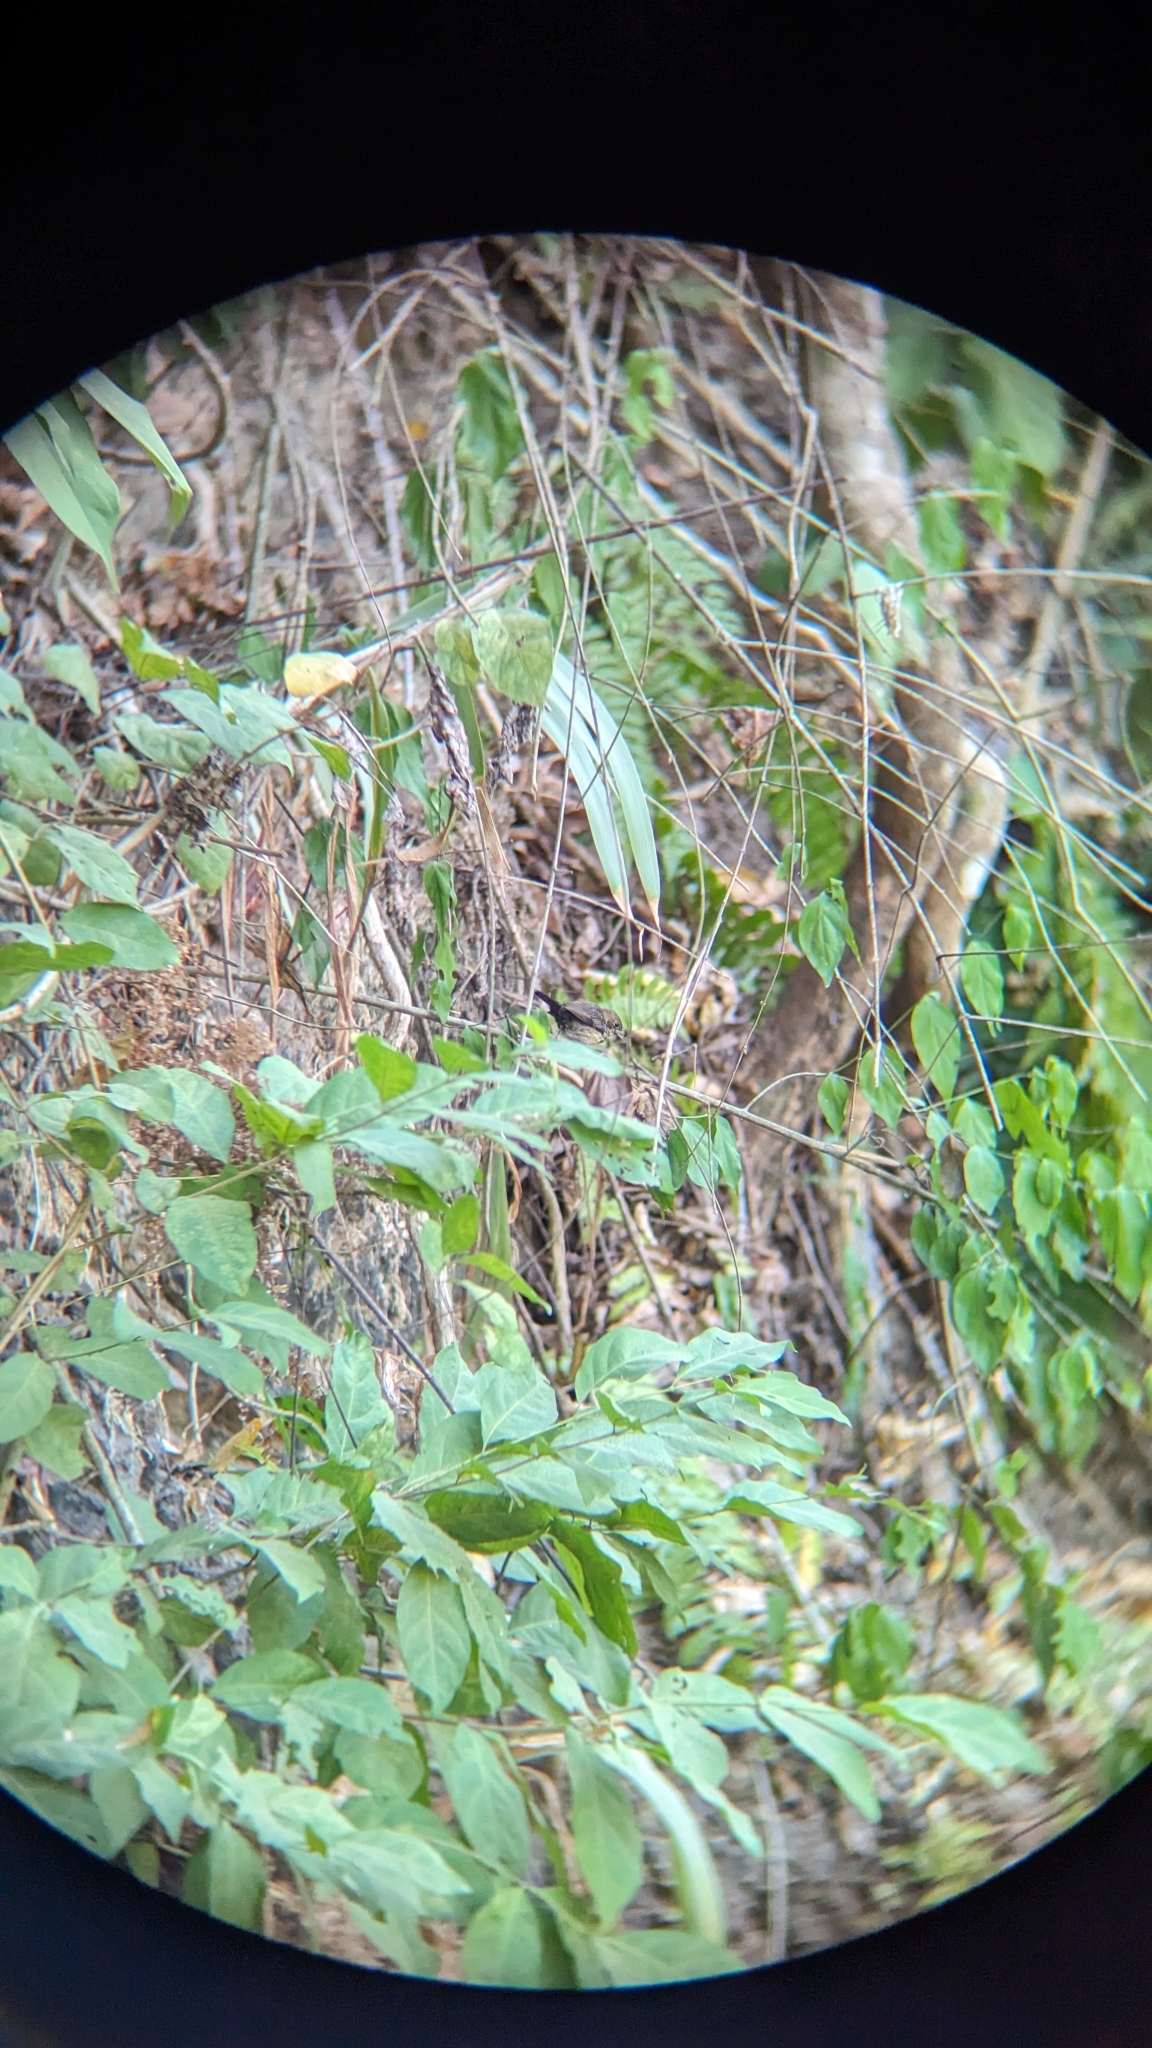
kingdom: Animalia
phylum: Chordata
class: Aves
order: Passeriformes
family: Thraupidae
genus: Volatinia
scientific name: Volatinia jacarina
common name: Blue-black grassquit
